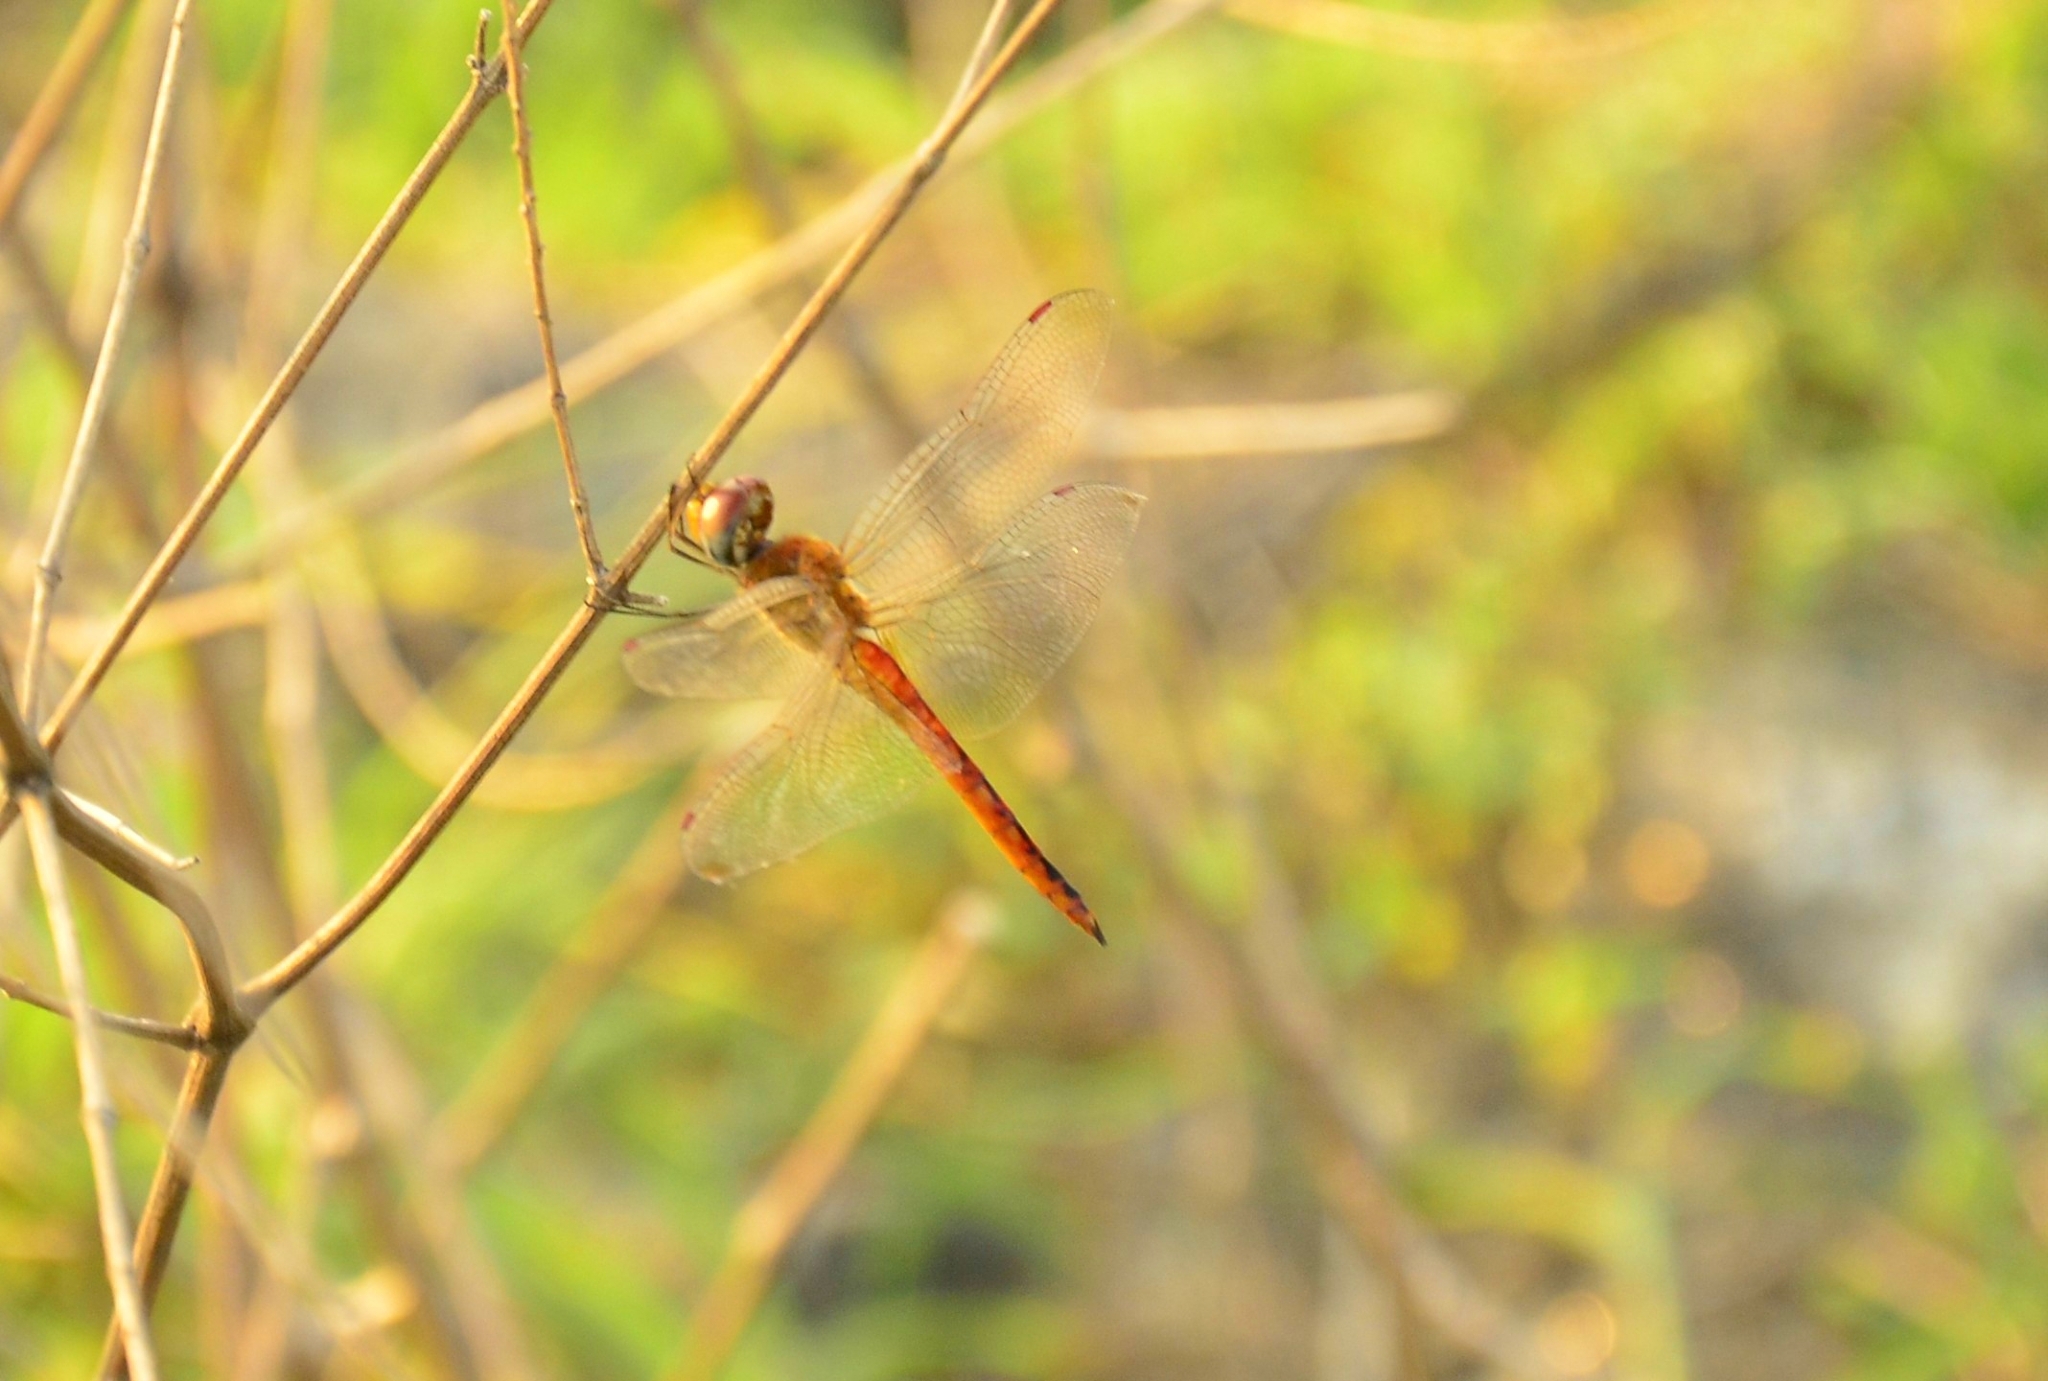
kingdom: Animalia
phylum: Arthropoda
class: Insecta
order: Odonata
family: Libellulidae
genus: Pantala
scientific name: Pantala flavescens
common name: Wandering glider
